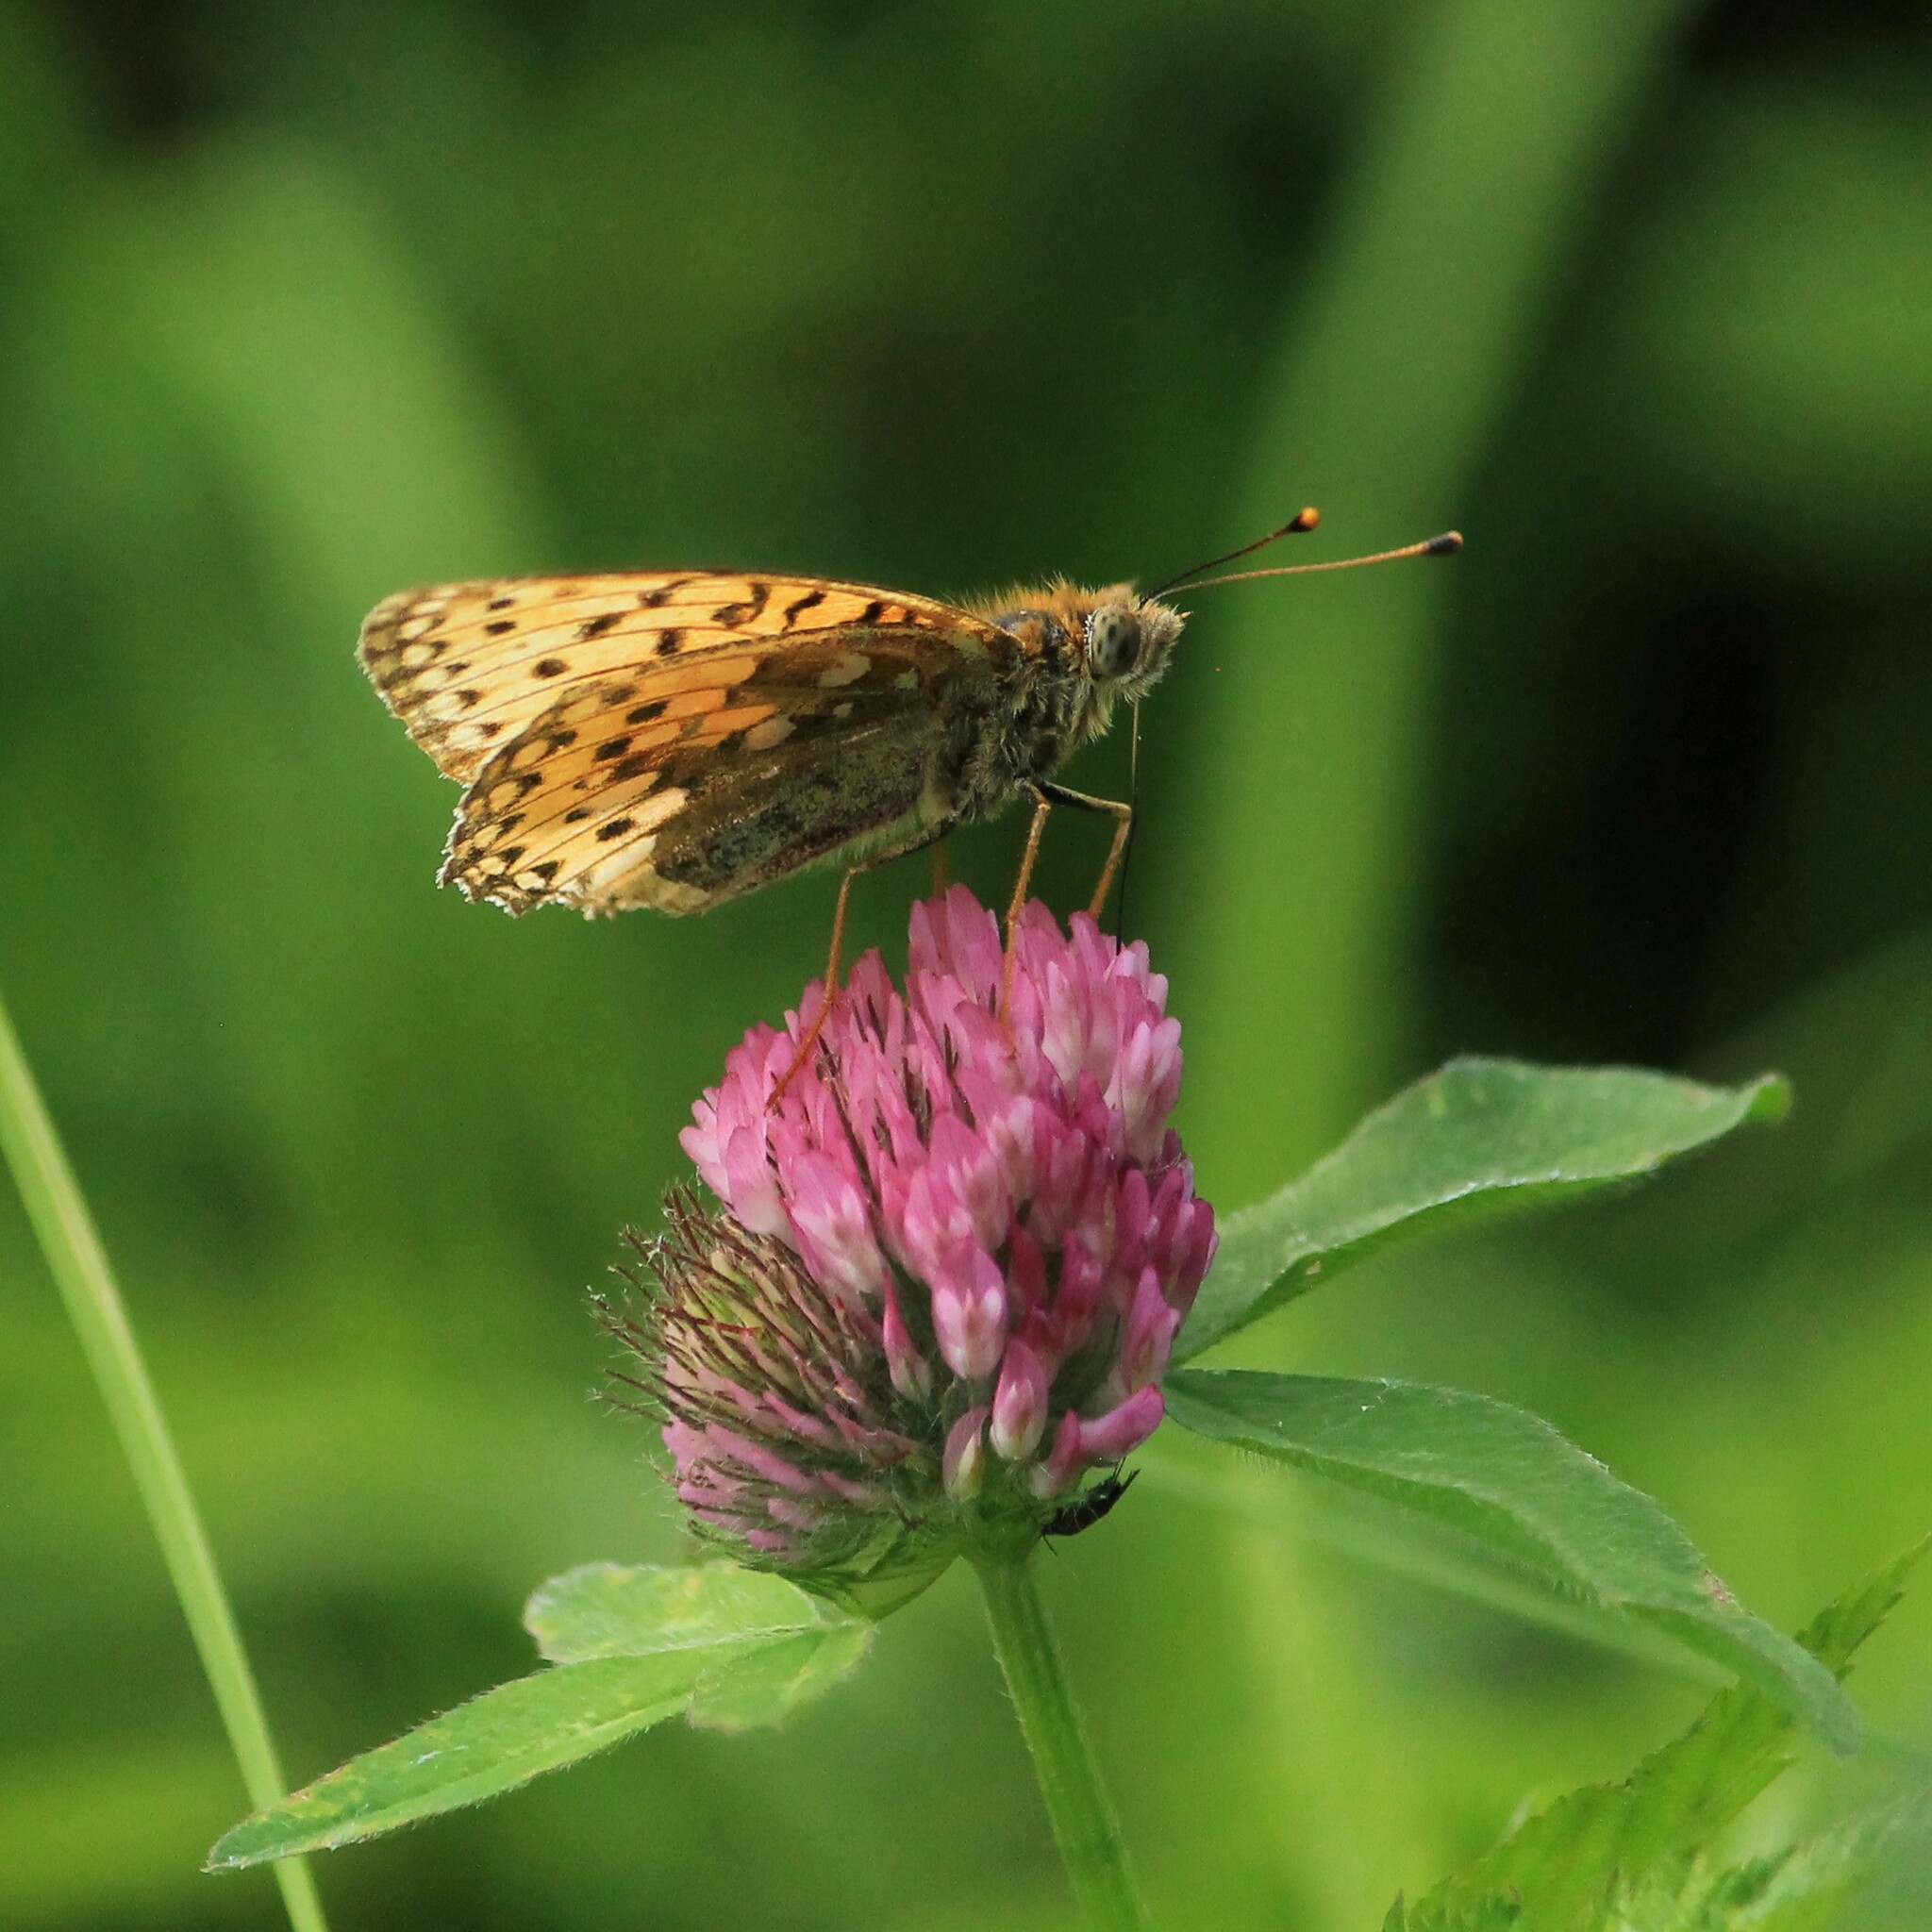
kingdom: Animalia
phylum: Arthropoda
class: Insecta
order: Lepidoptera
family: Nymphalidae
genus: Speyeria
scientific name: Speyeria aglaja
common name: Dark green fritillary
